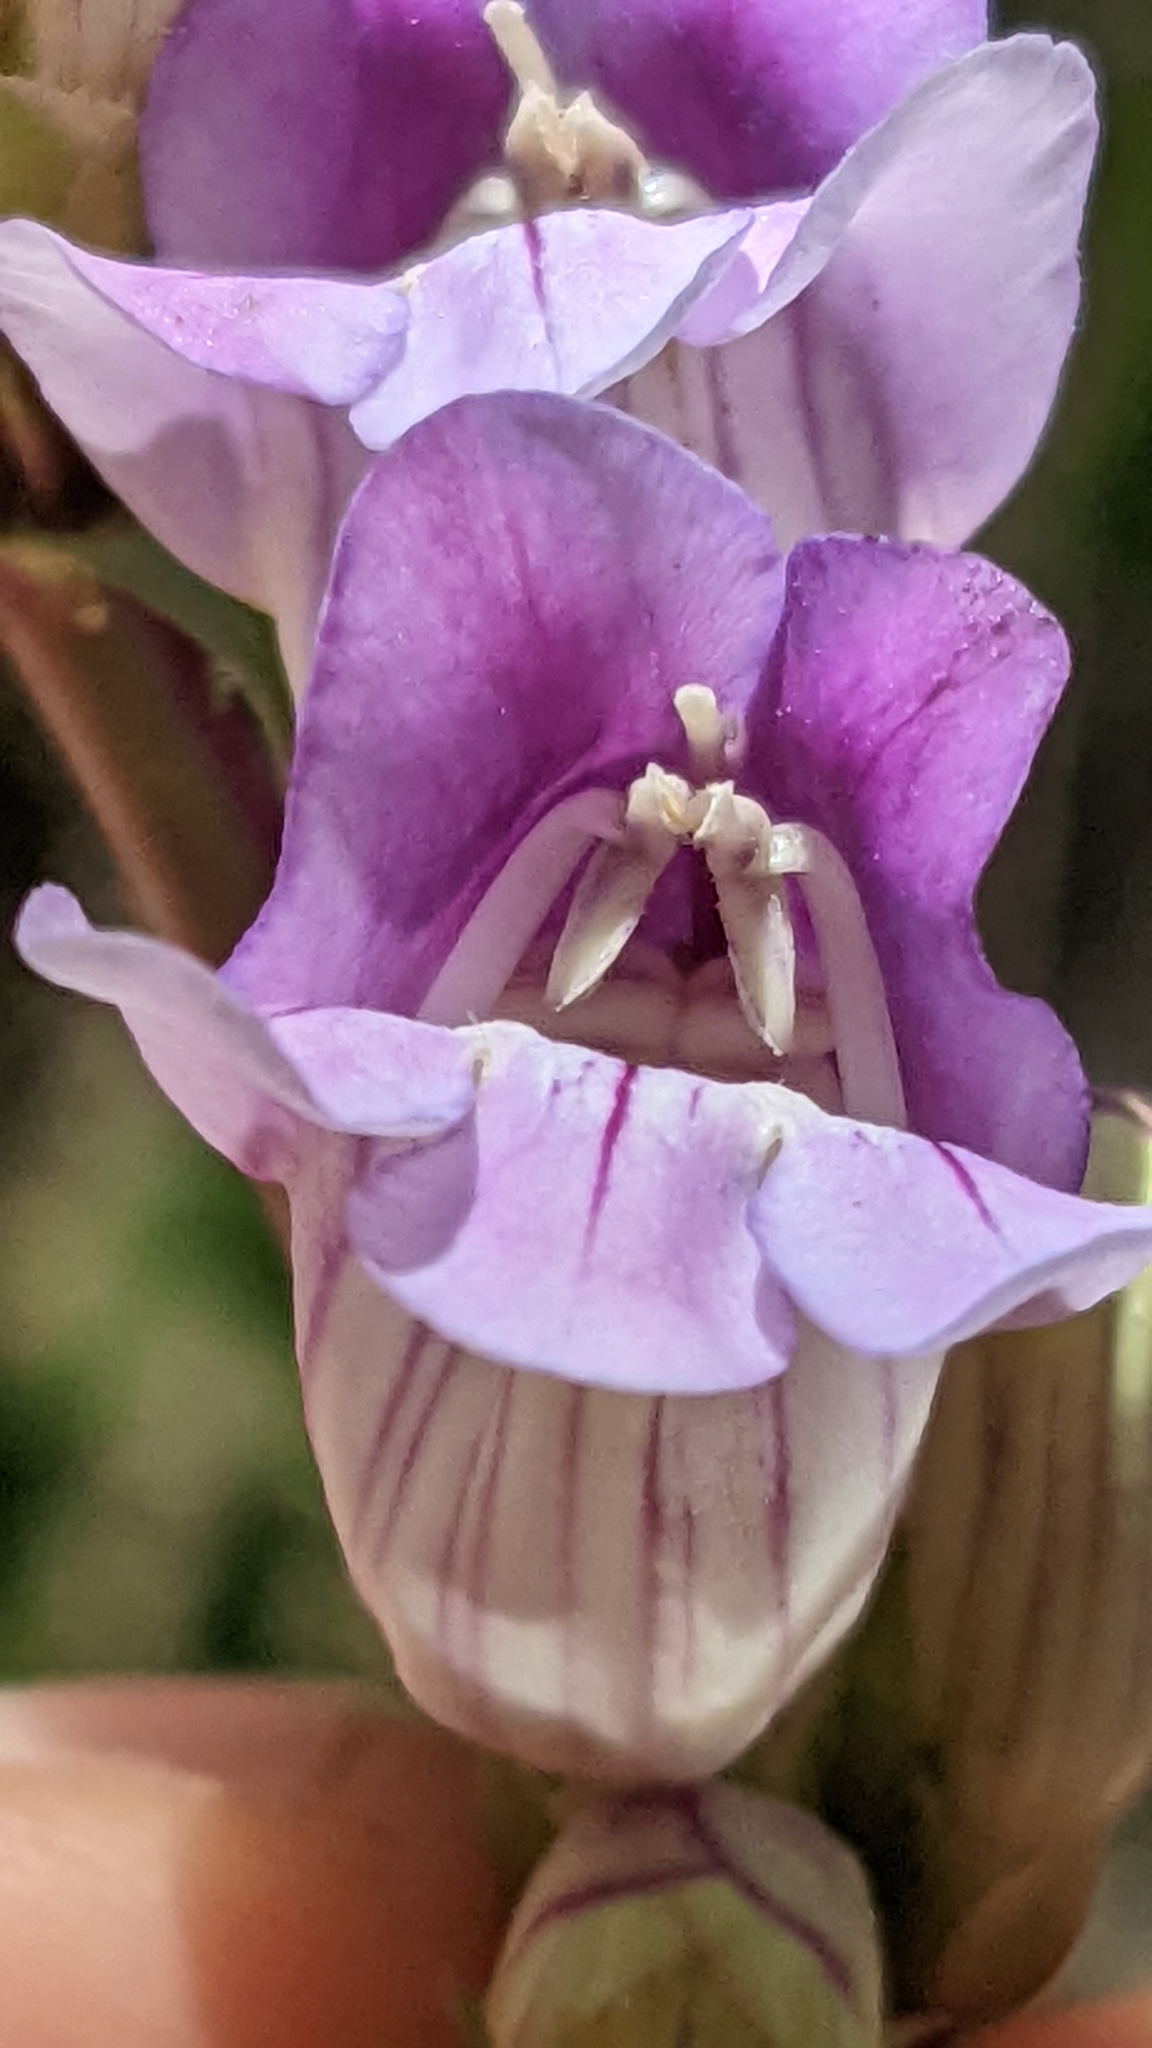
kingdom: Plantae
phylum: Tracheophyta
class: Magnoliopsida
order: Lamiales
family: Plantaginaceae
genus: Penstemon
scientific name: Penstemon laevis
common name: Smooth penstemon
